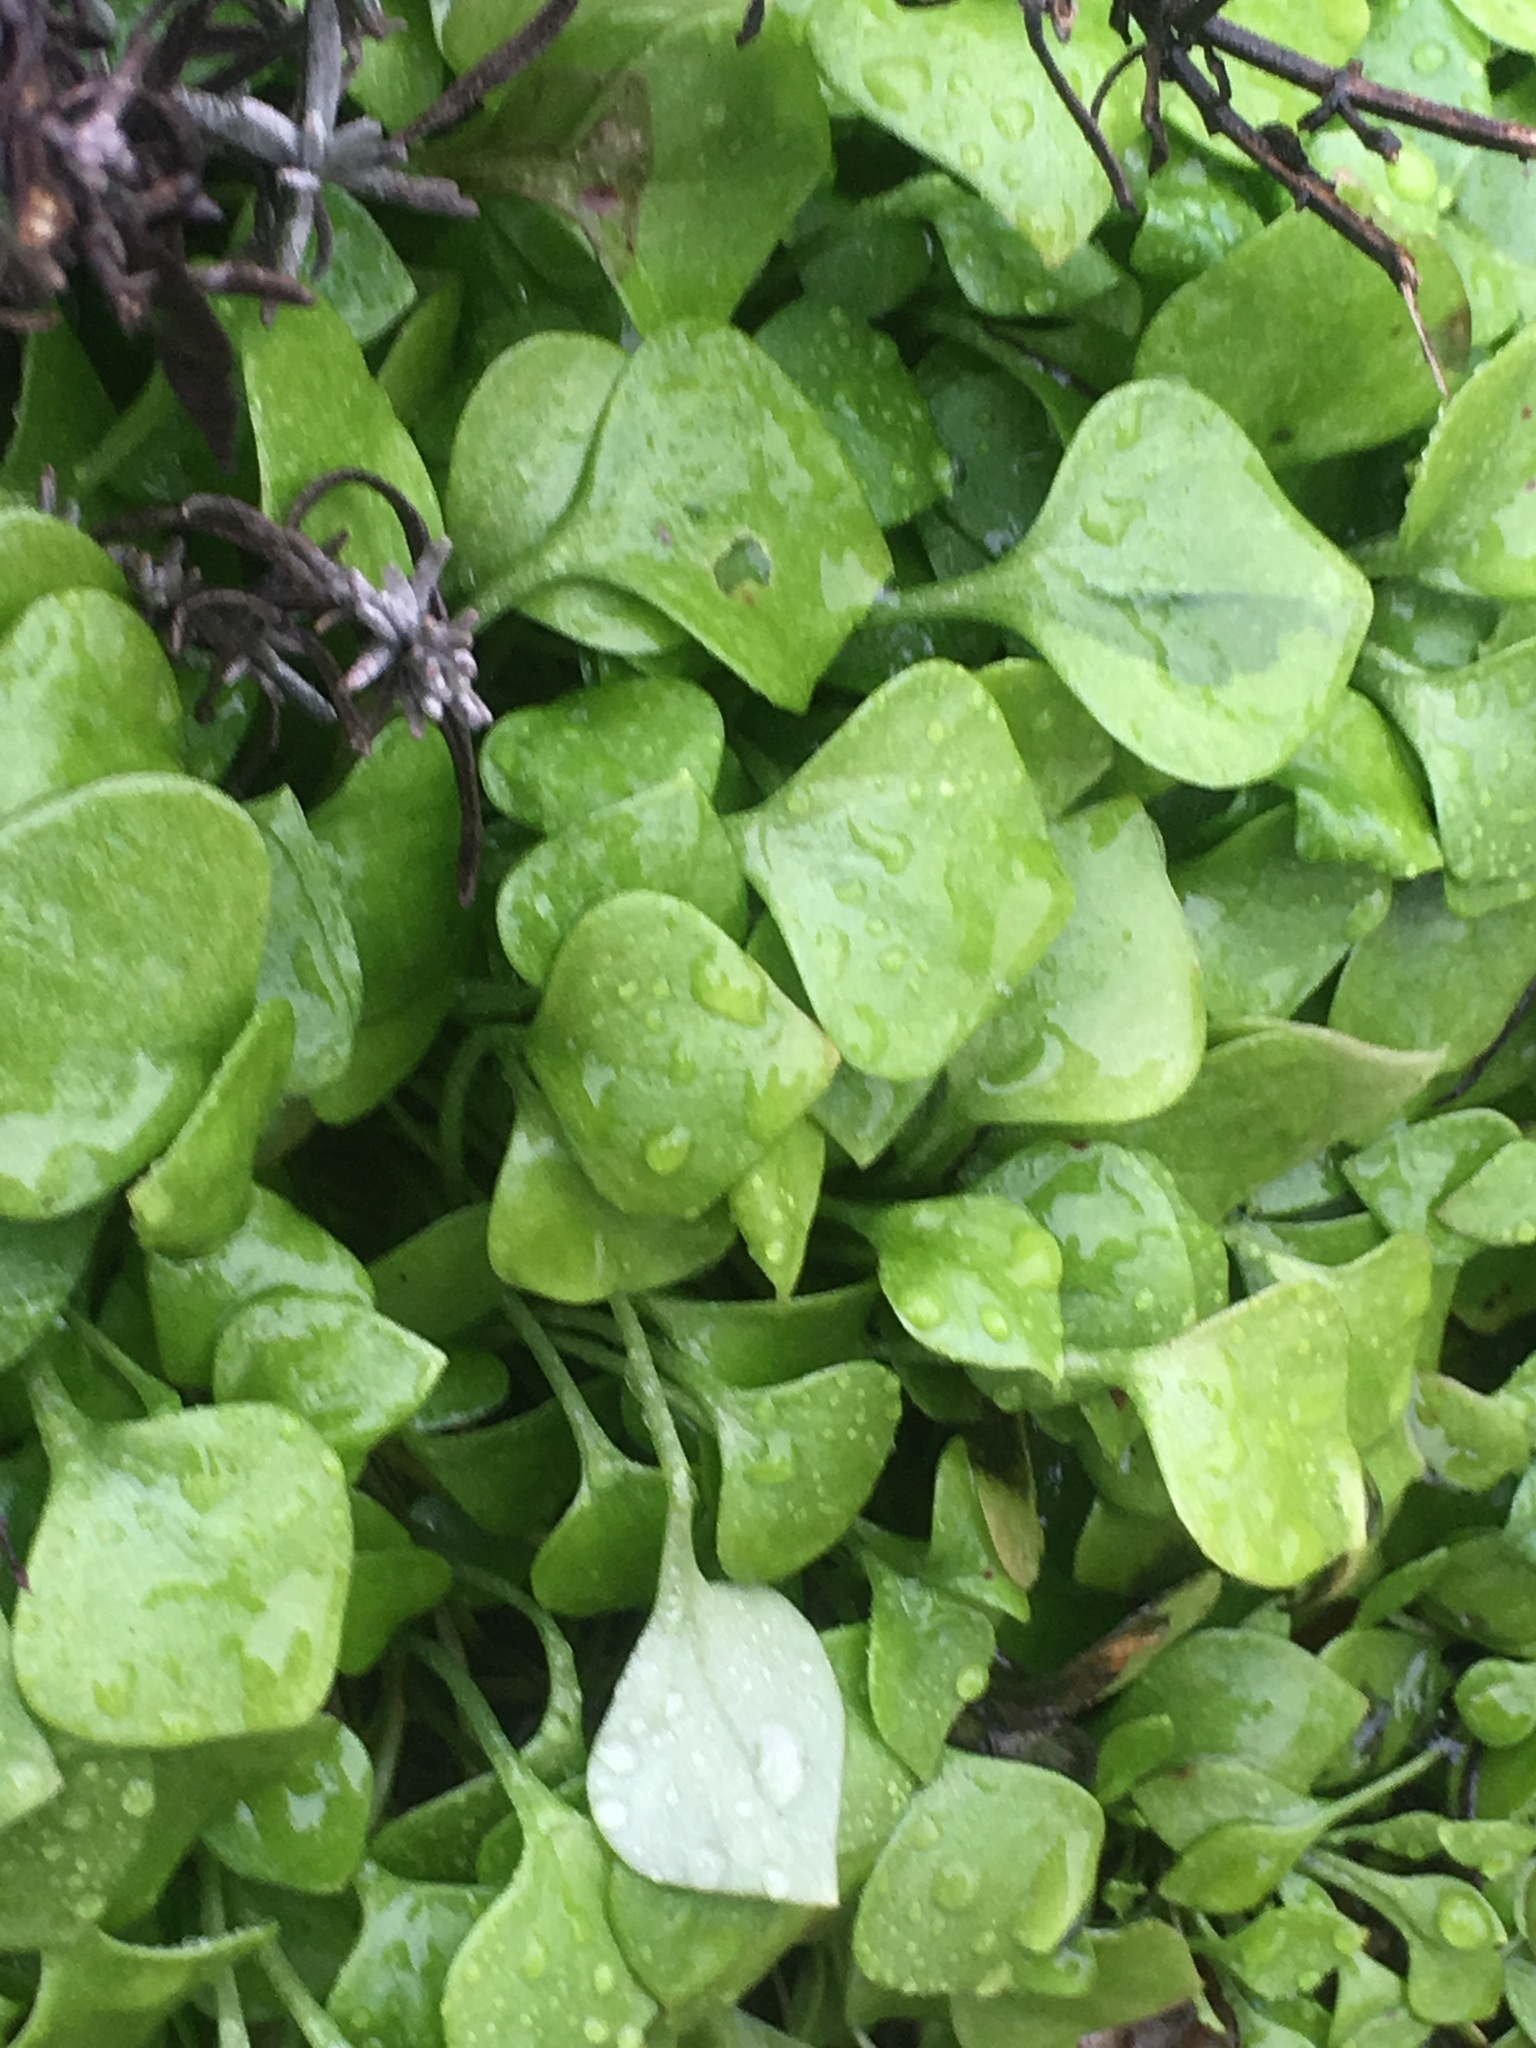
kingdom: Plantae
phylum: Tracheophyta
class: Magnoliopsida
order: Caryophyllales
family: Montiaceae
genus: Claytonia
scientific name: Claytonia perfoliata
